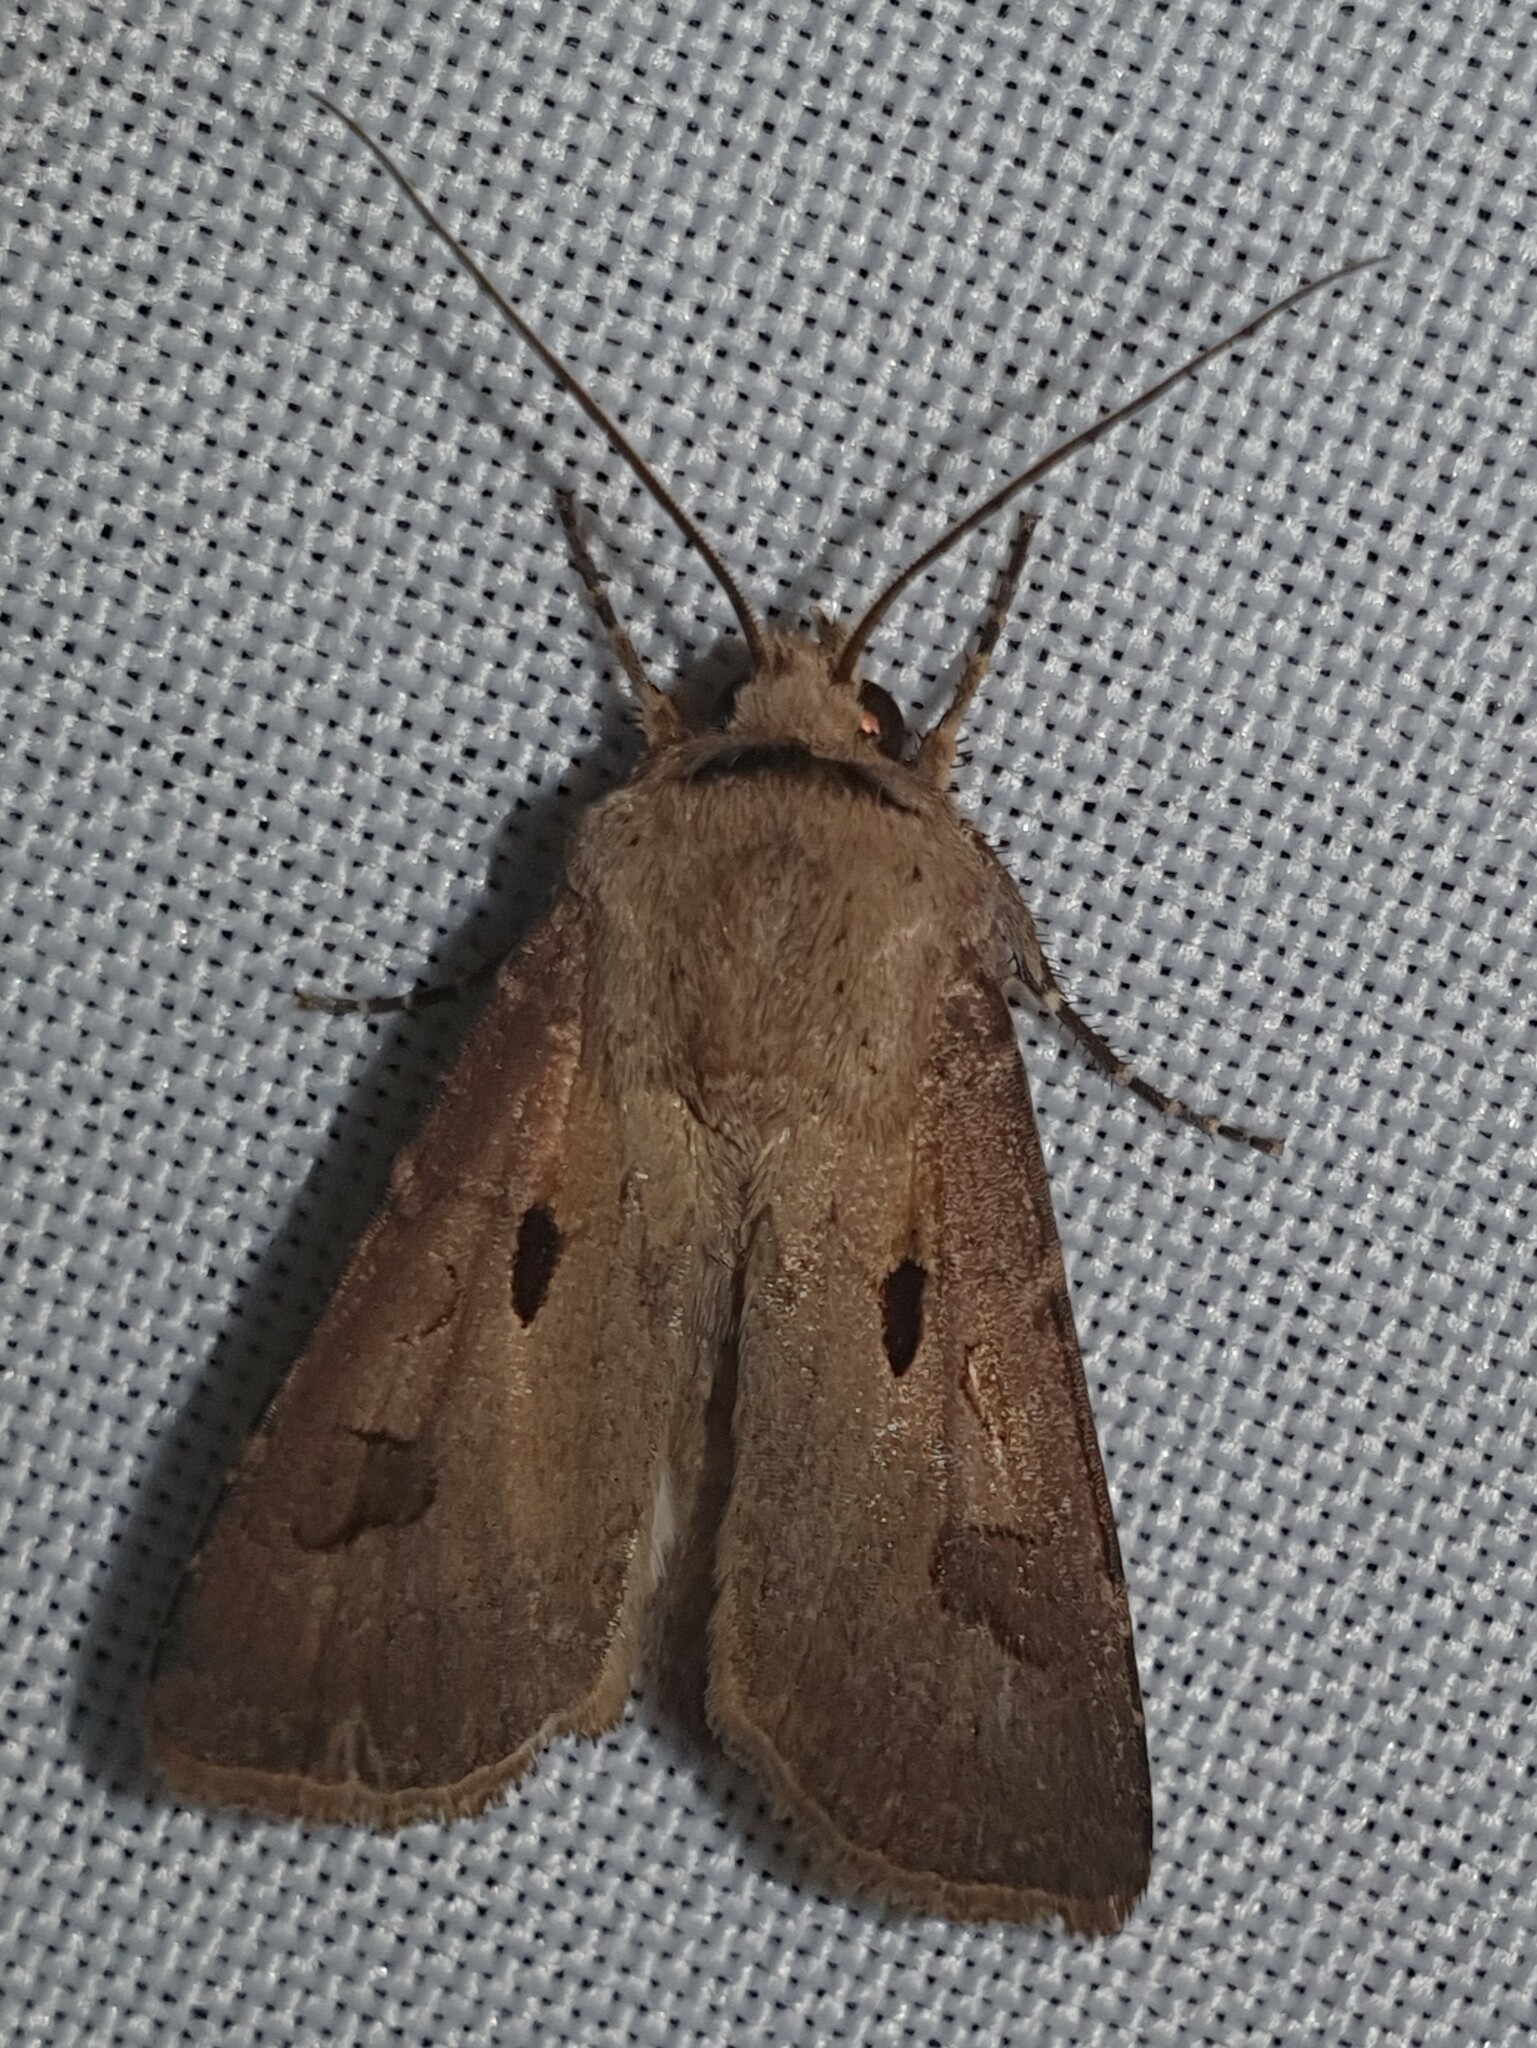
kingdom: Animalia
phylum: Arthropoda
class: Insecta
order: Lepidoptera
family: Noctuidae
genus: Agrotis
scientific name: Agrotis exclamationis
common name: Heart and dart
